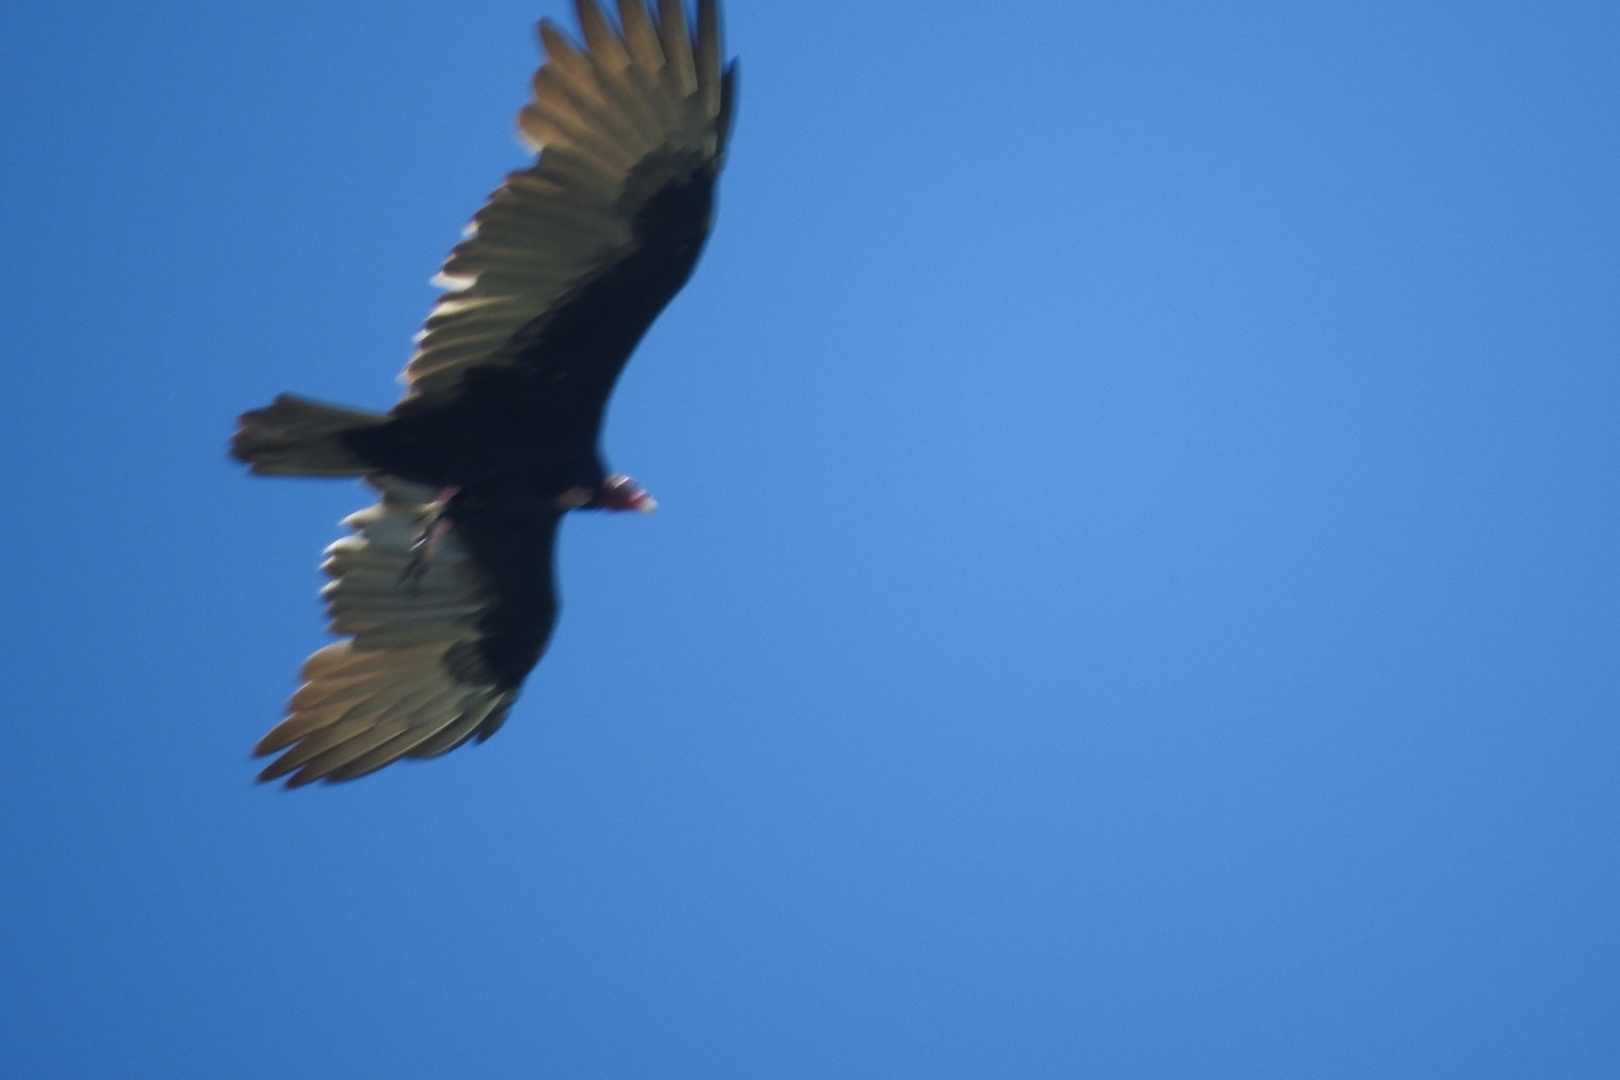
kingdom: Animalia
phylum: Chordata
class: Aves
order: Accipitriformes
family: Cathartidae
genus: Cathartes
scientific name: Cathartes aura
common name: Turkey vulture
